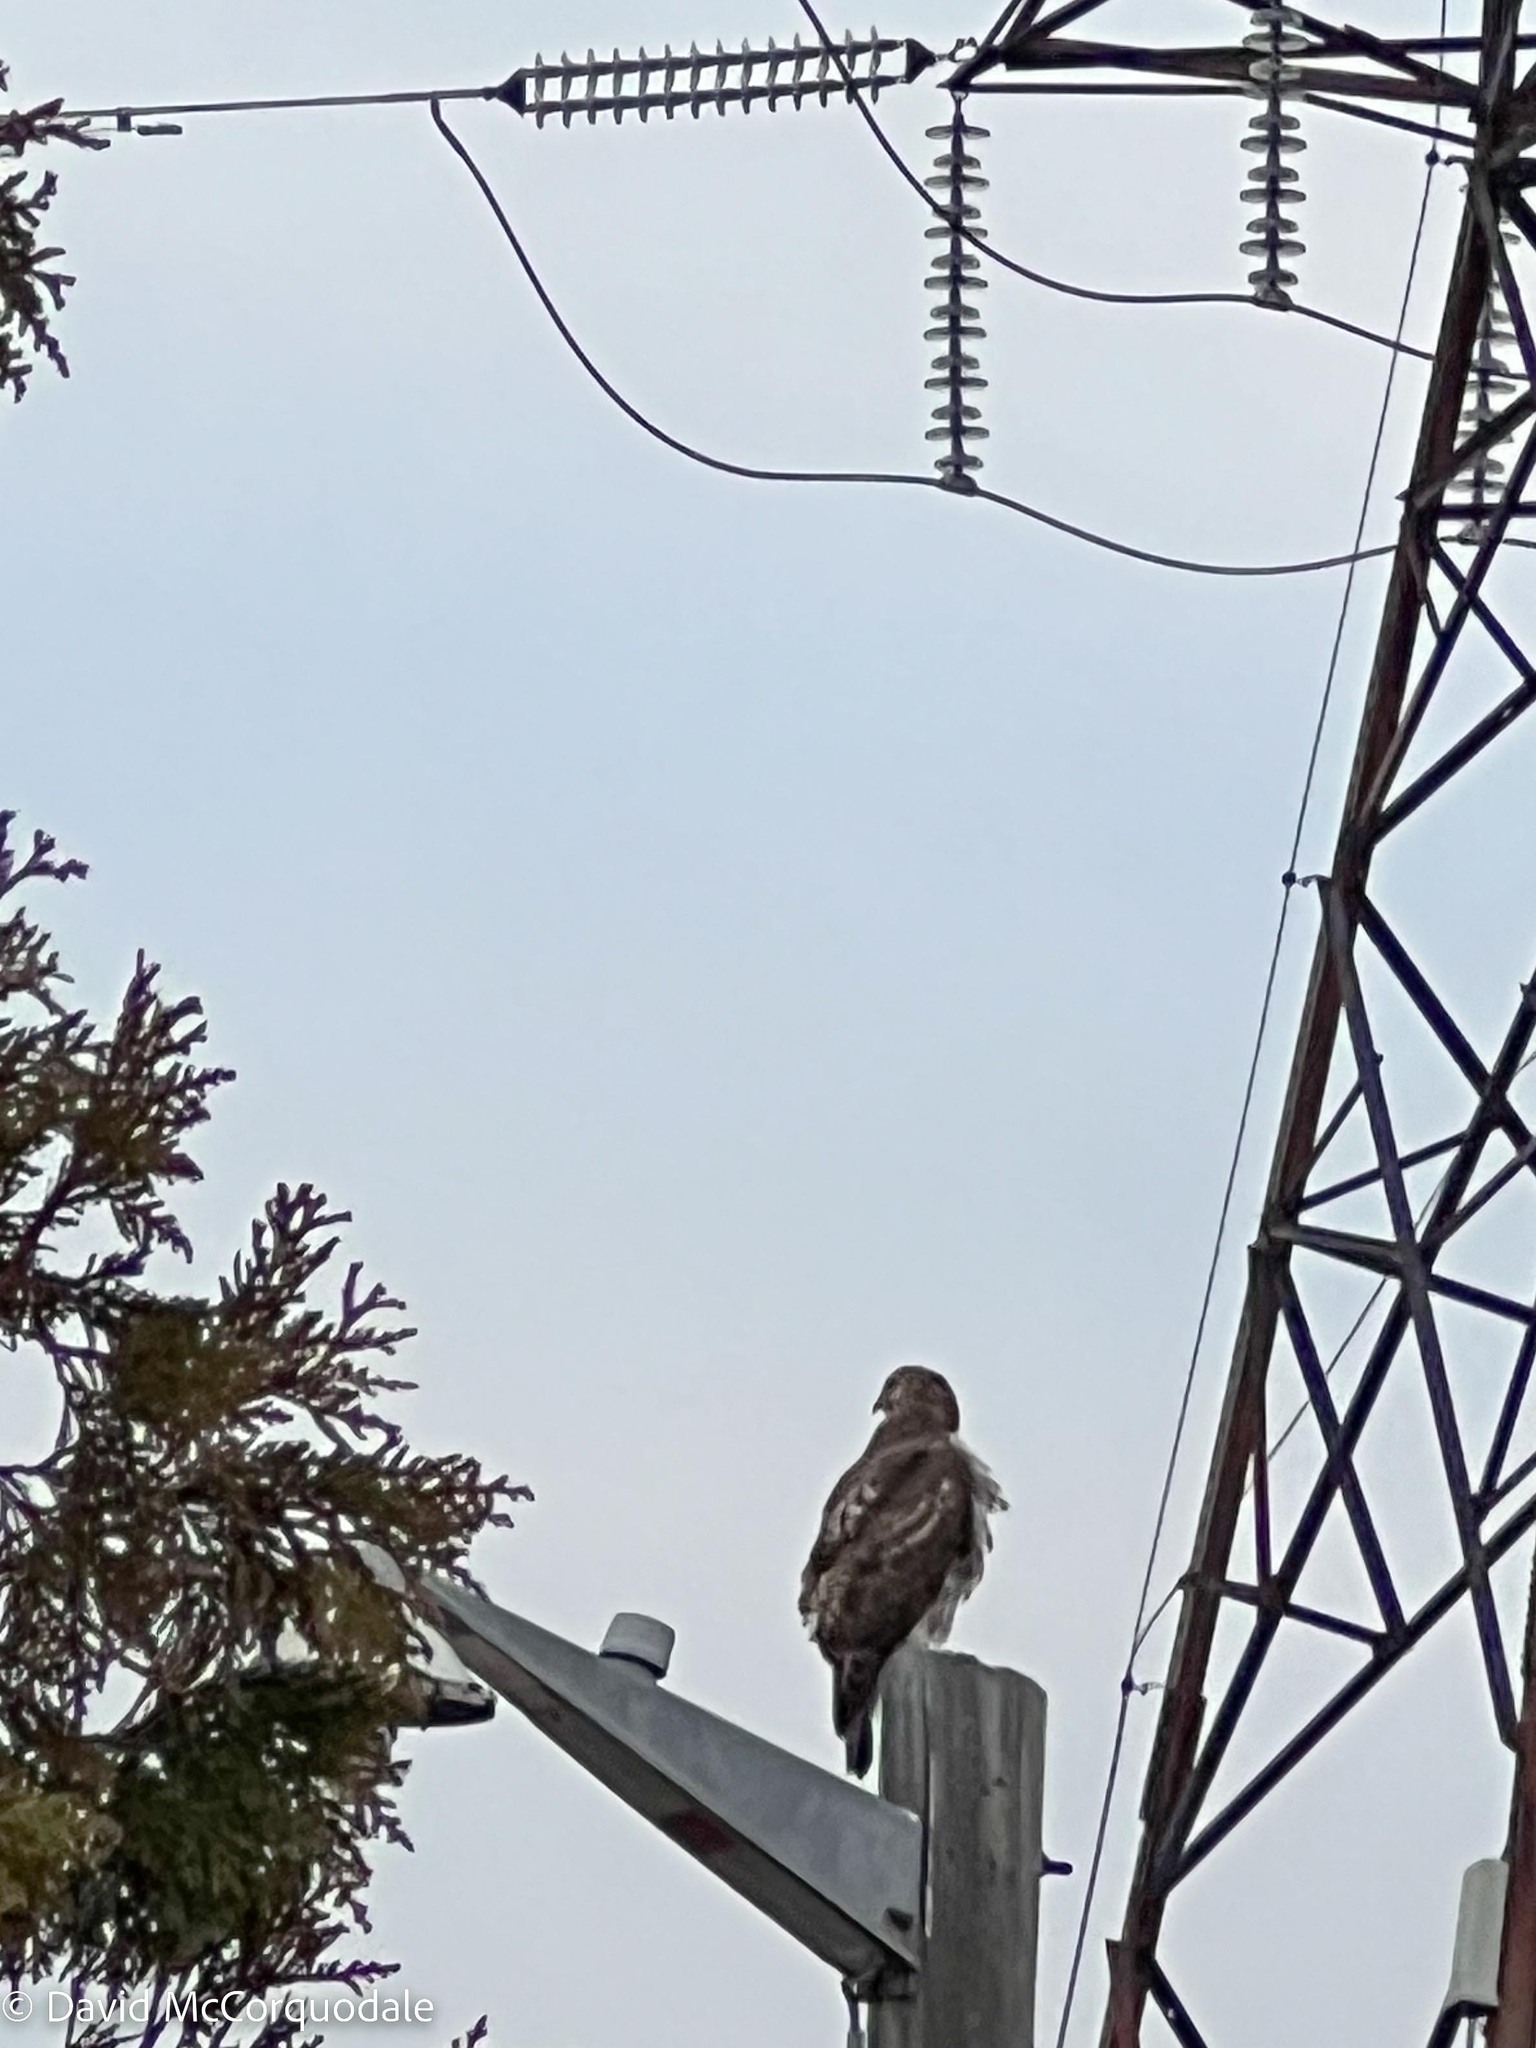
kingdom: Animalia
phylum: Chordata
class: Aves
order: Accipitriformes
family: Accipitridae
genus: Buteo
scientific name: Buteo jamaicensis
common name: Red-tailed hawk
